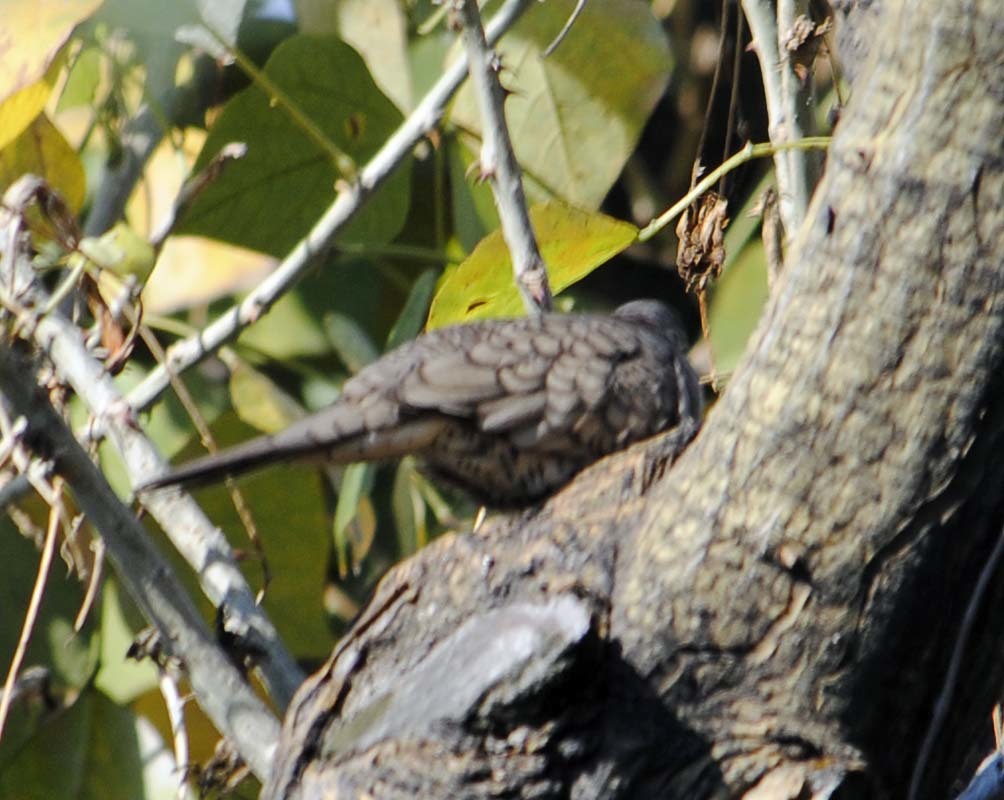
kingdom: Animalia
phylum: Chordata
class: Aves
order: Columbiformes
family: Columbidae
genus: Columbina
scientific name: Columbina inca
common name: Inca dove
